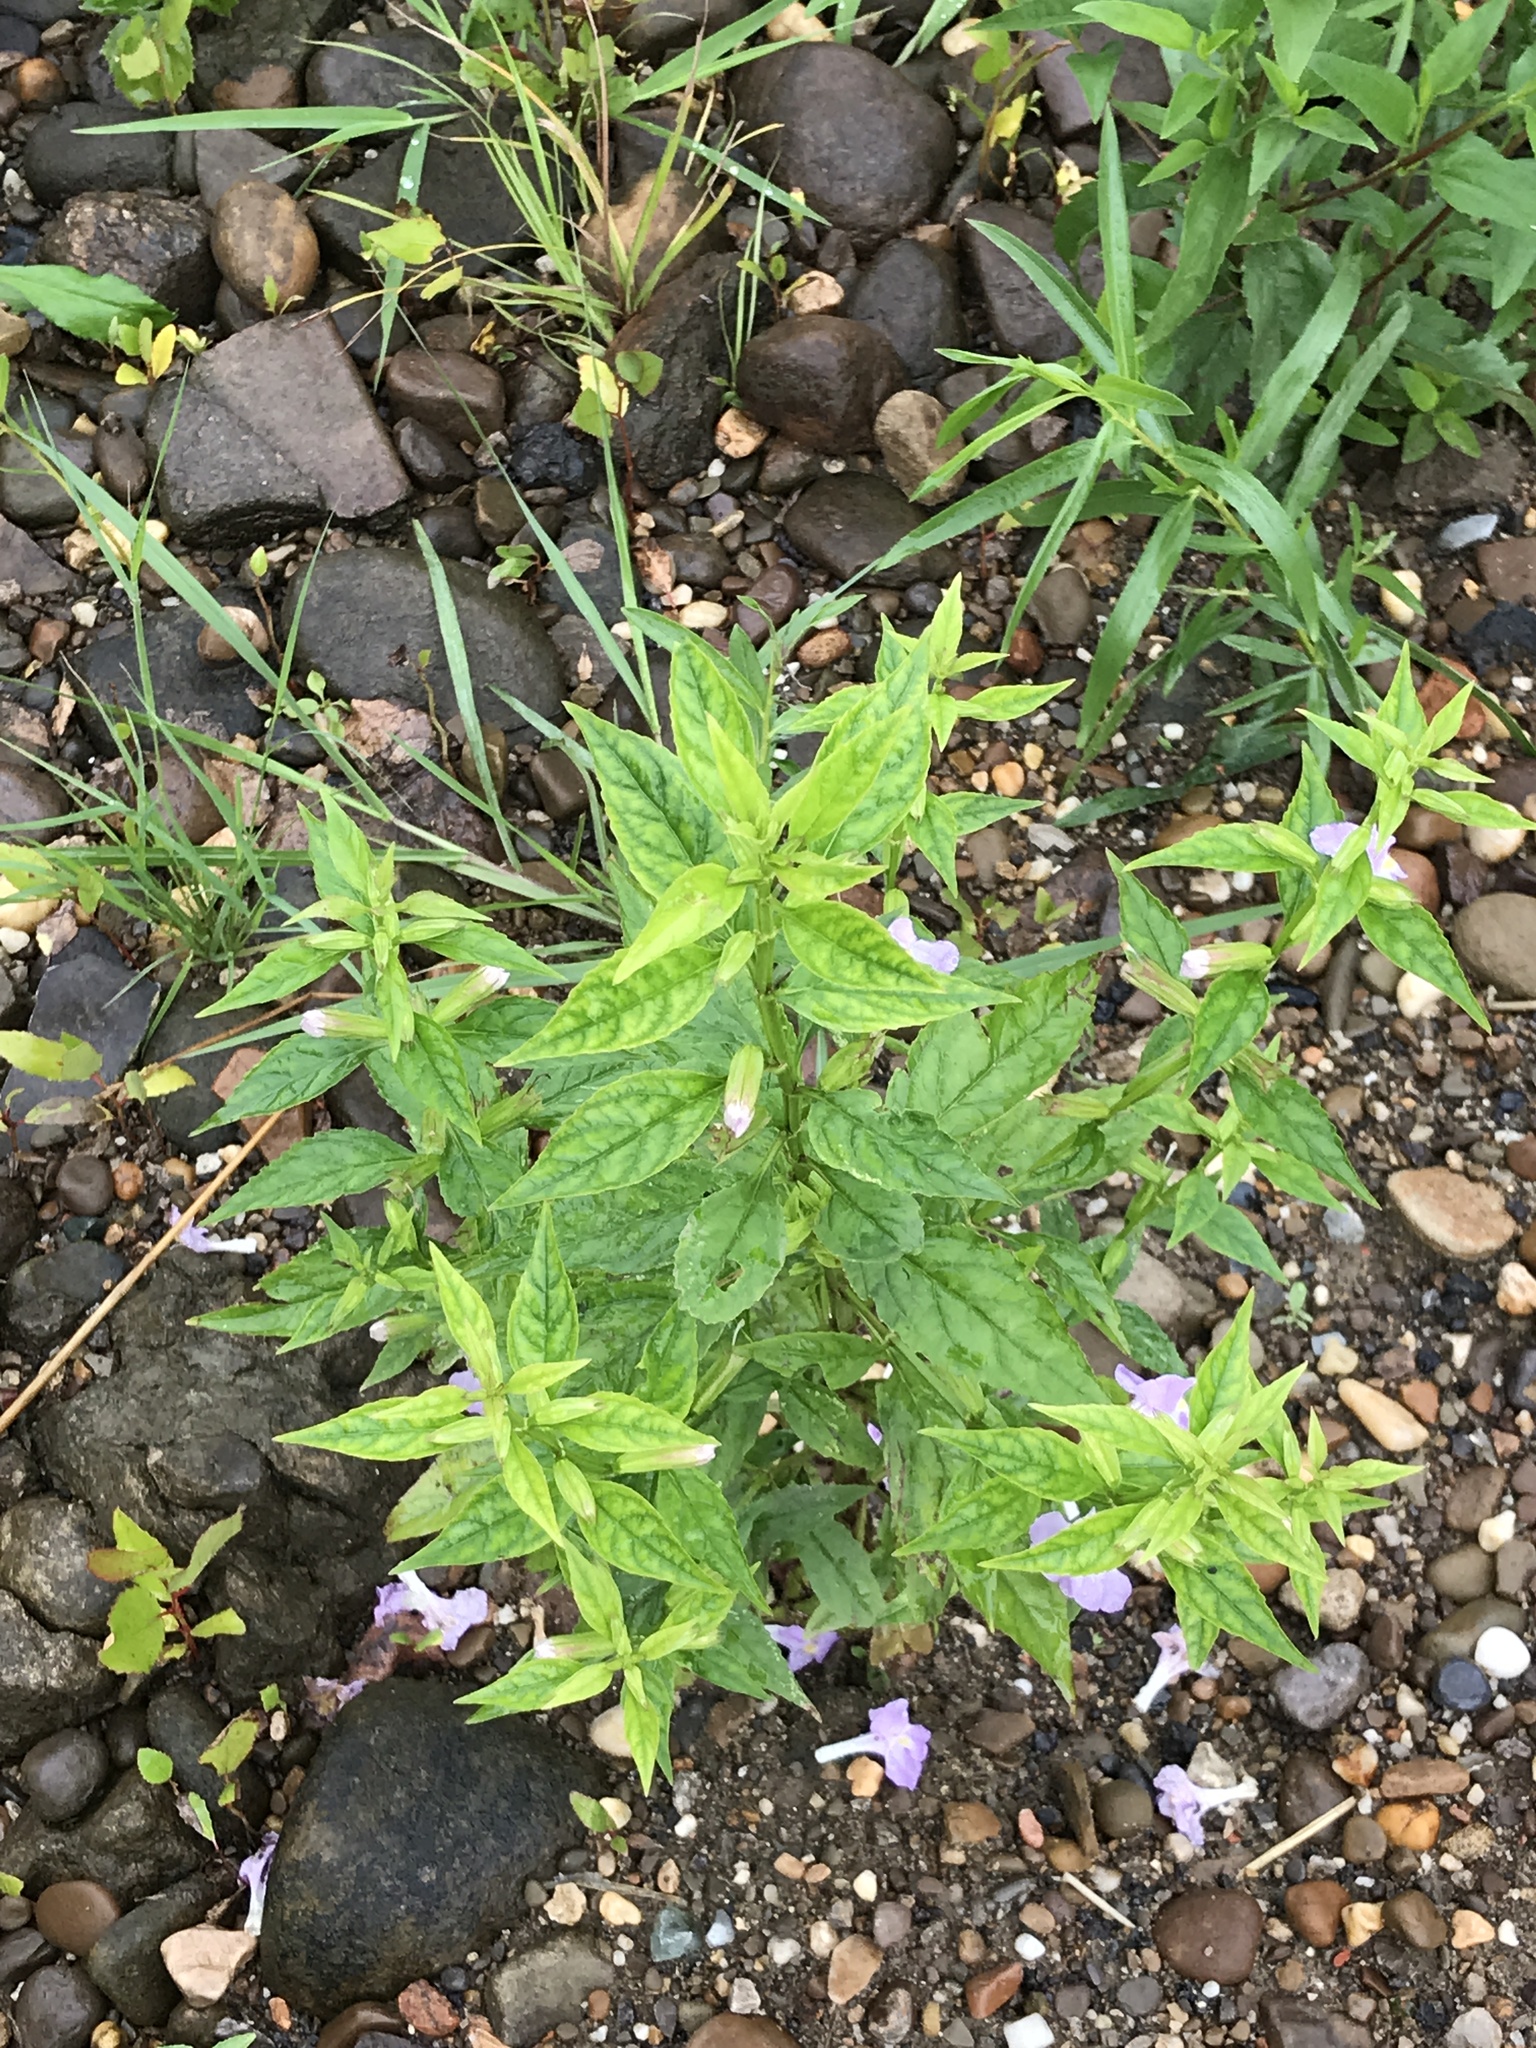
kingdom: Plantae
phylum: Tracheophyta
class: Magnoliopsida
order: Lamiales
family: Phrymaceae
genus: Mimulus
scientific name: Mimulus alatus
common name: Sharp-wing monkey-flower
